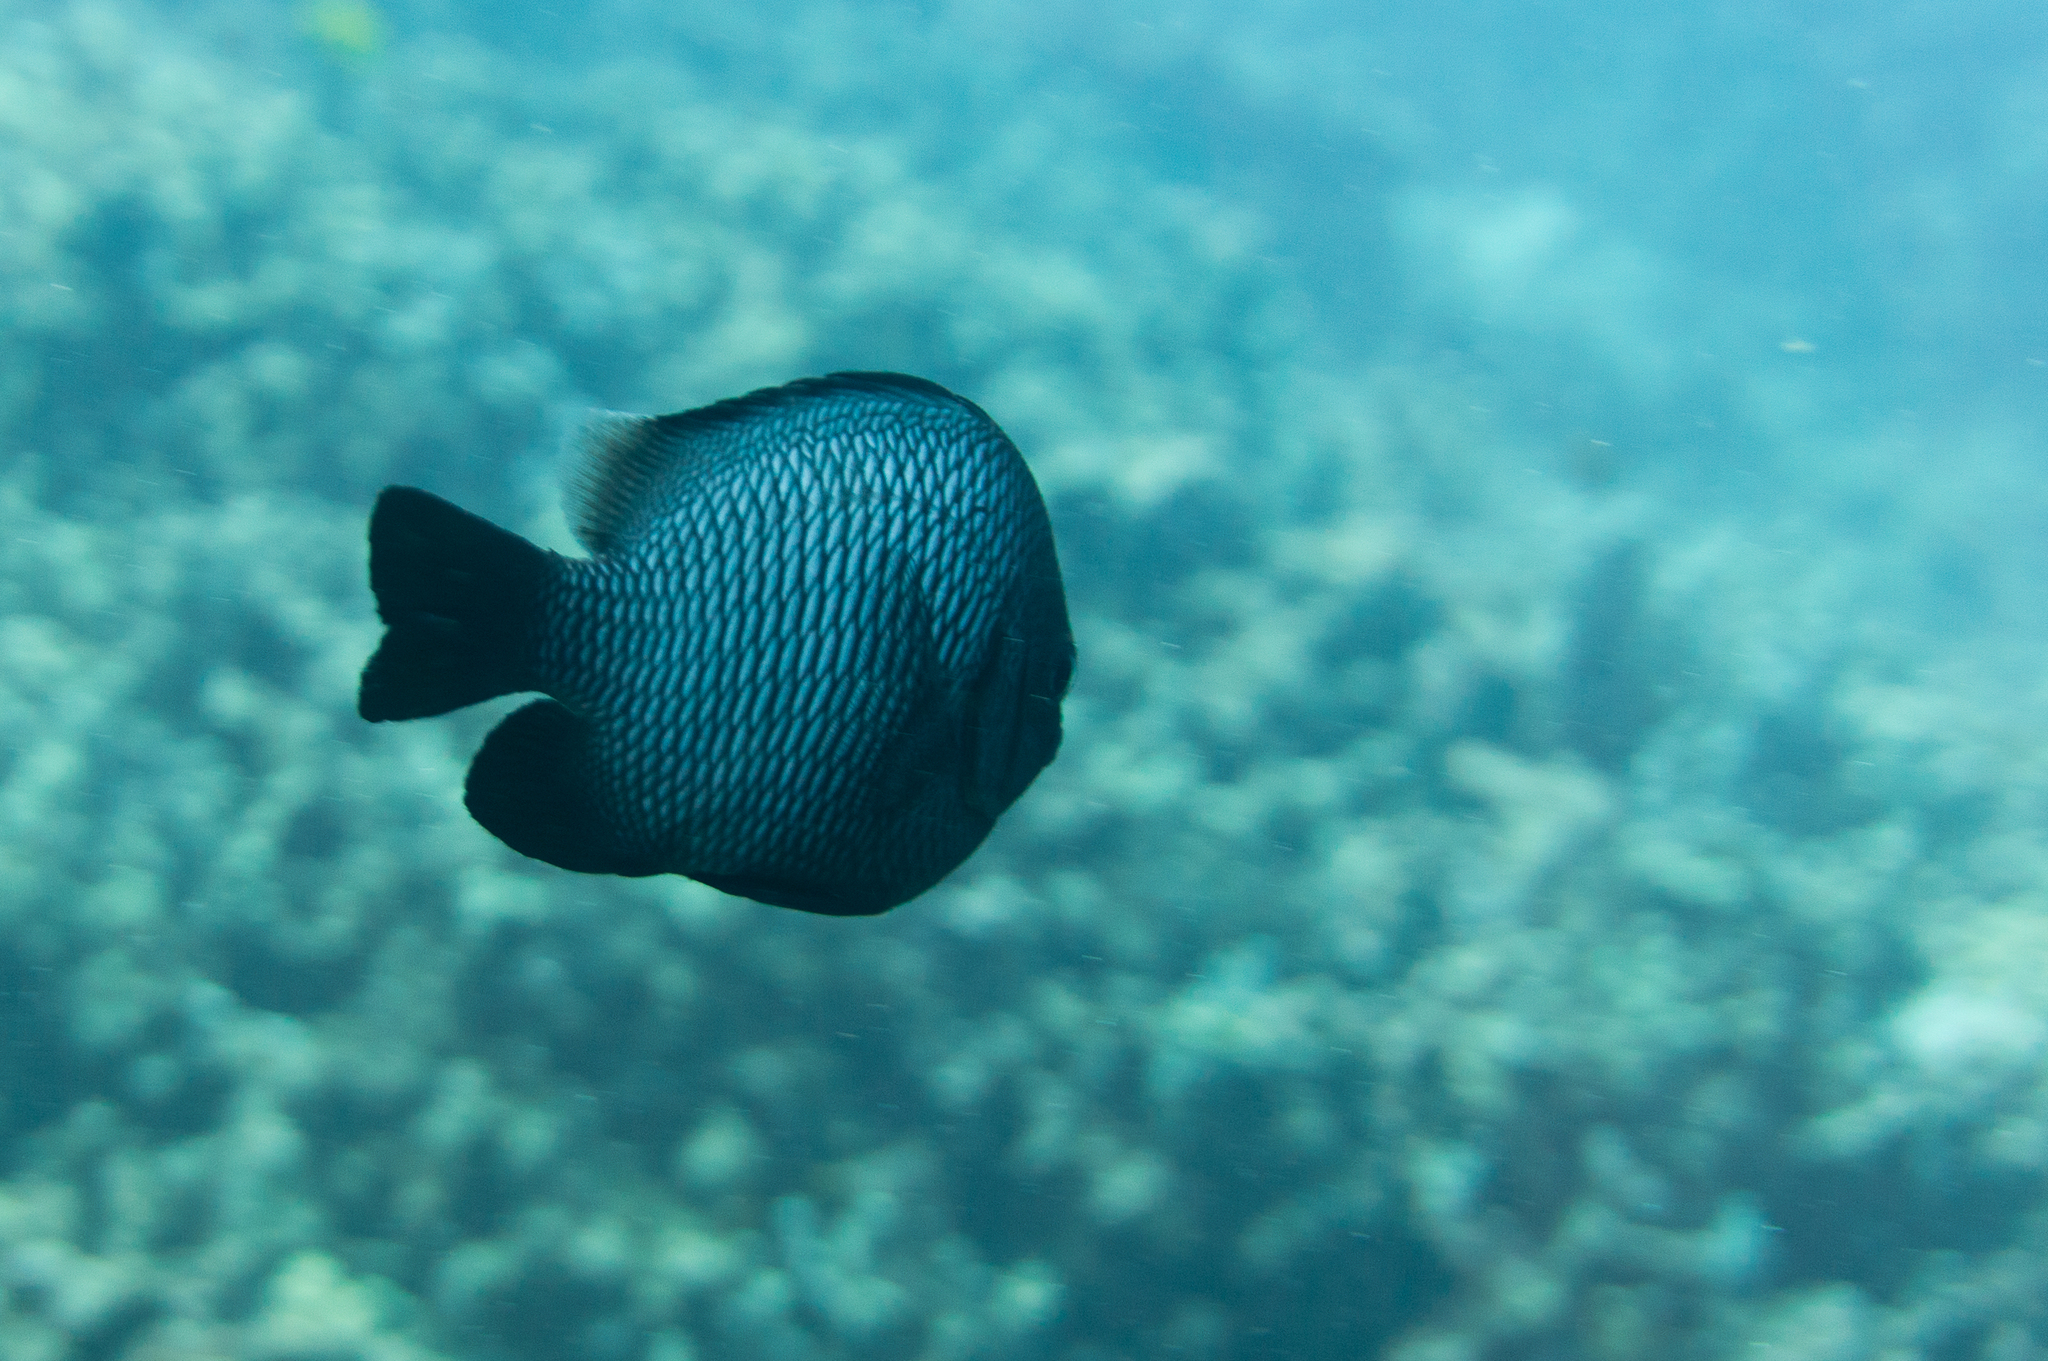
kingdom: Animalia
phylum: Chordata
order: Perciformes
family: Pomacentridae
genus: Dascyllus
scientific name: Dascyllus albisella
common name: Hawaiian dascyllus
